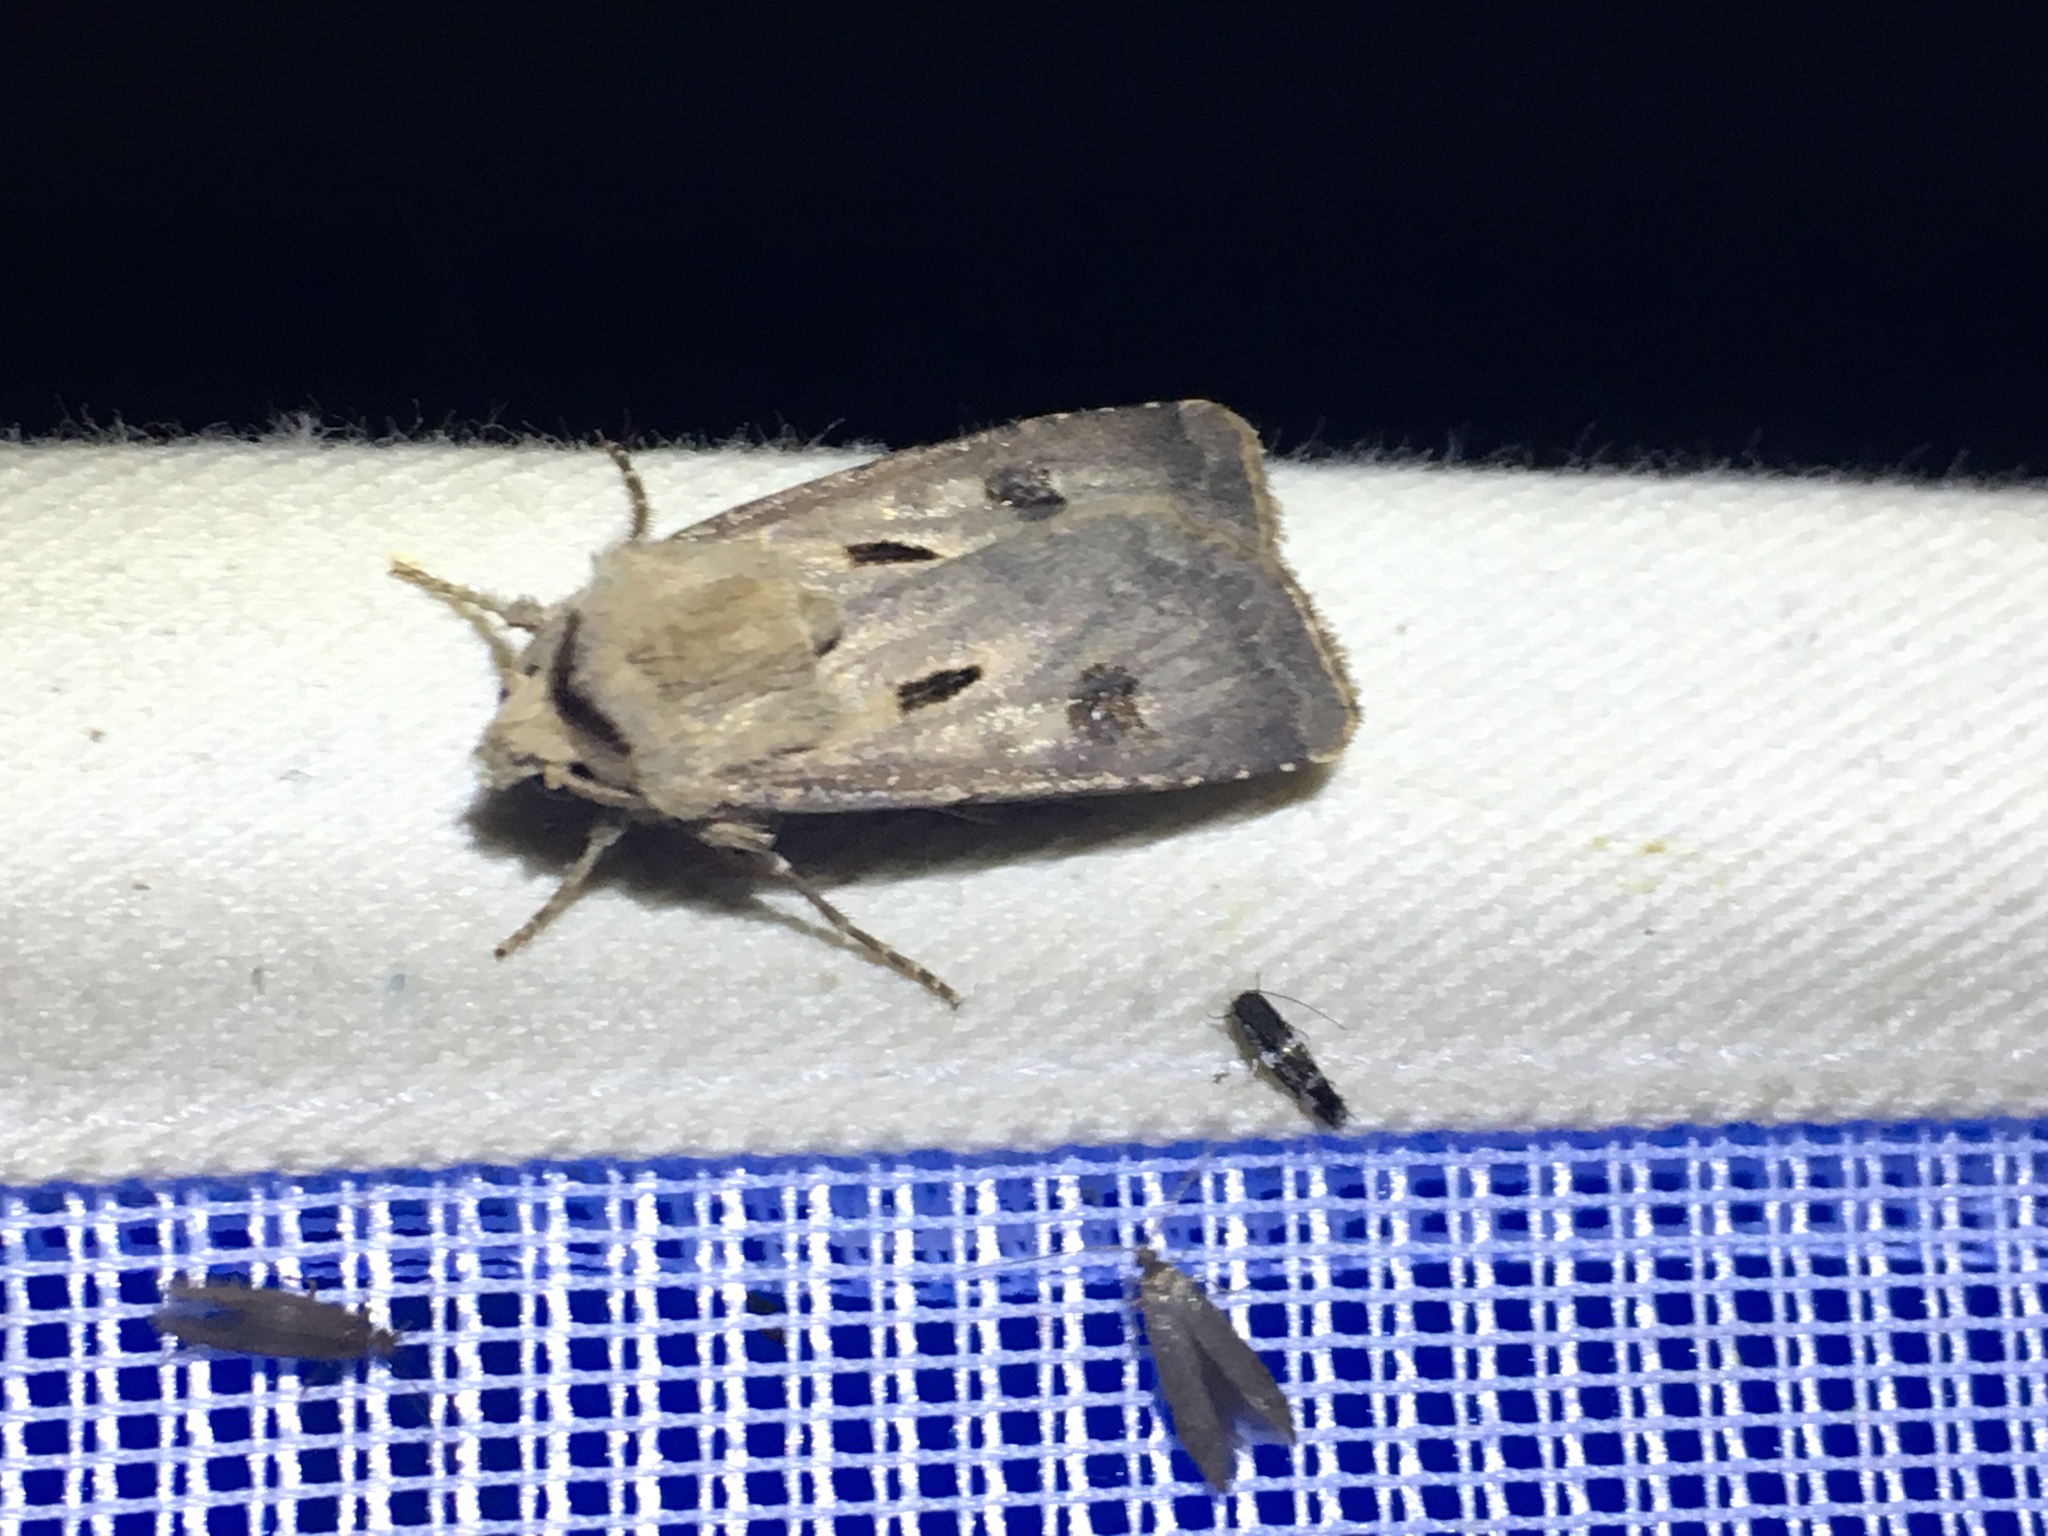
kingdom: Animalia
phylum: Arthropoda
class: Insecta
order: Lepidoptera
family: Noctuidae
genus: Agrotis
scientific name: Agrotis exclamationis
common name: Heart and dart
